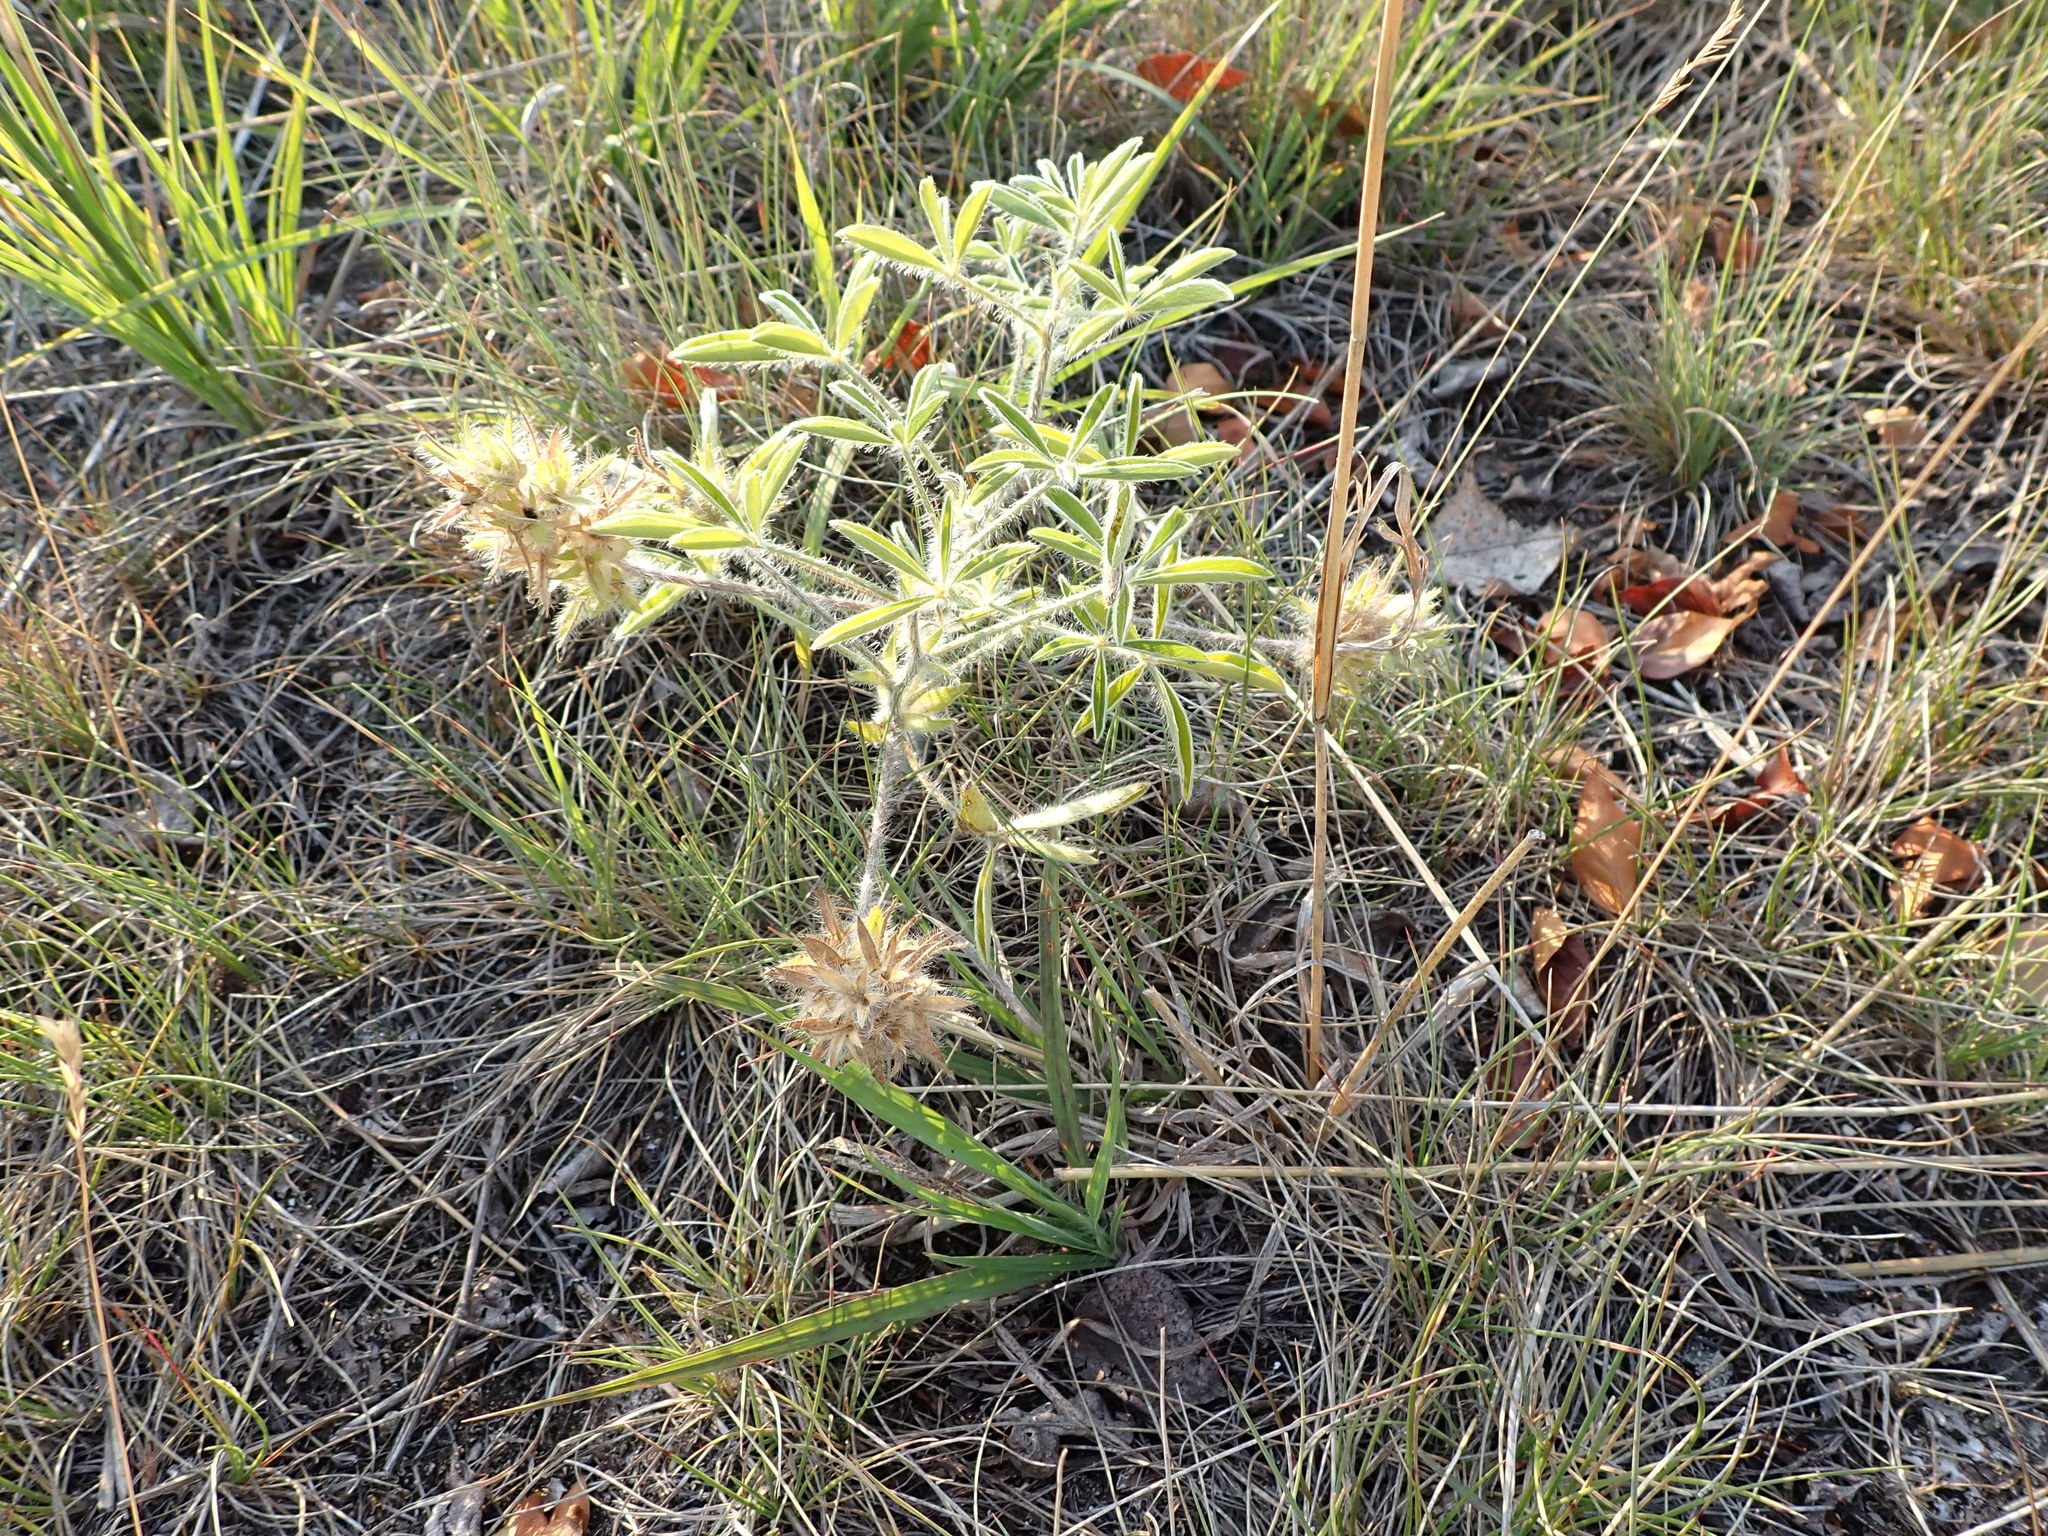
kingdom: Plantae
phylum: Tracheophyta
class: Magnoliopsida
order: Fabales
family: Fabaceae
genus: Pediomelum
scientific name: Pediomelum esculentum
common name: Indian-turnip
